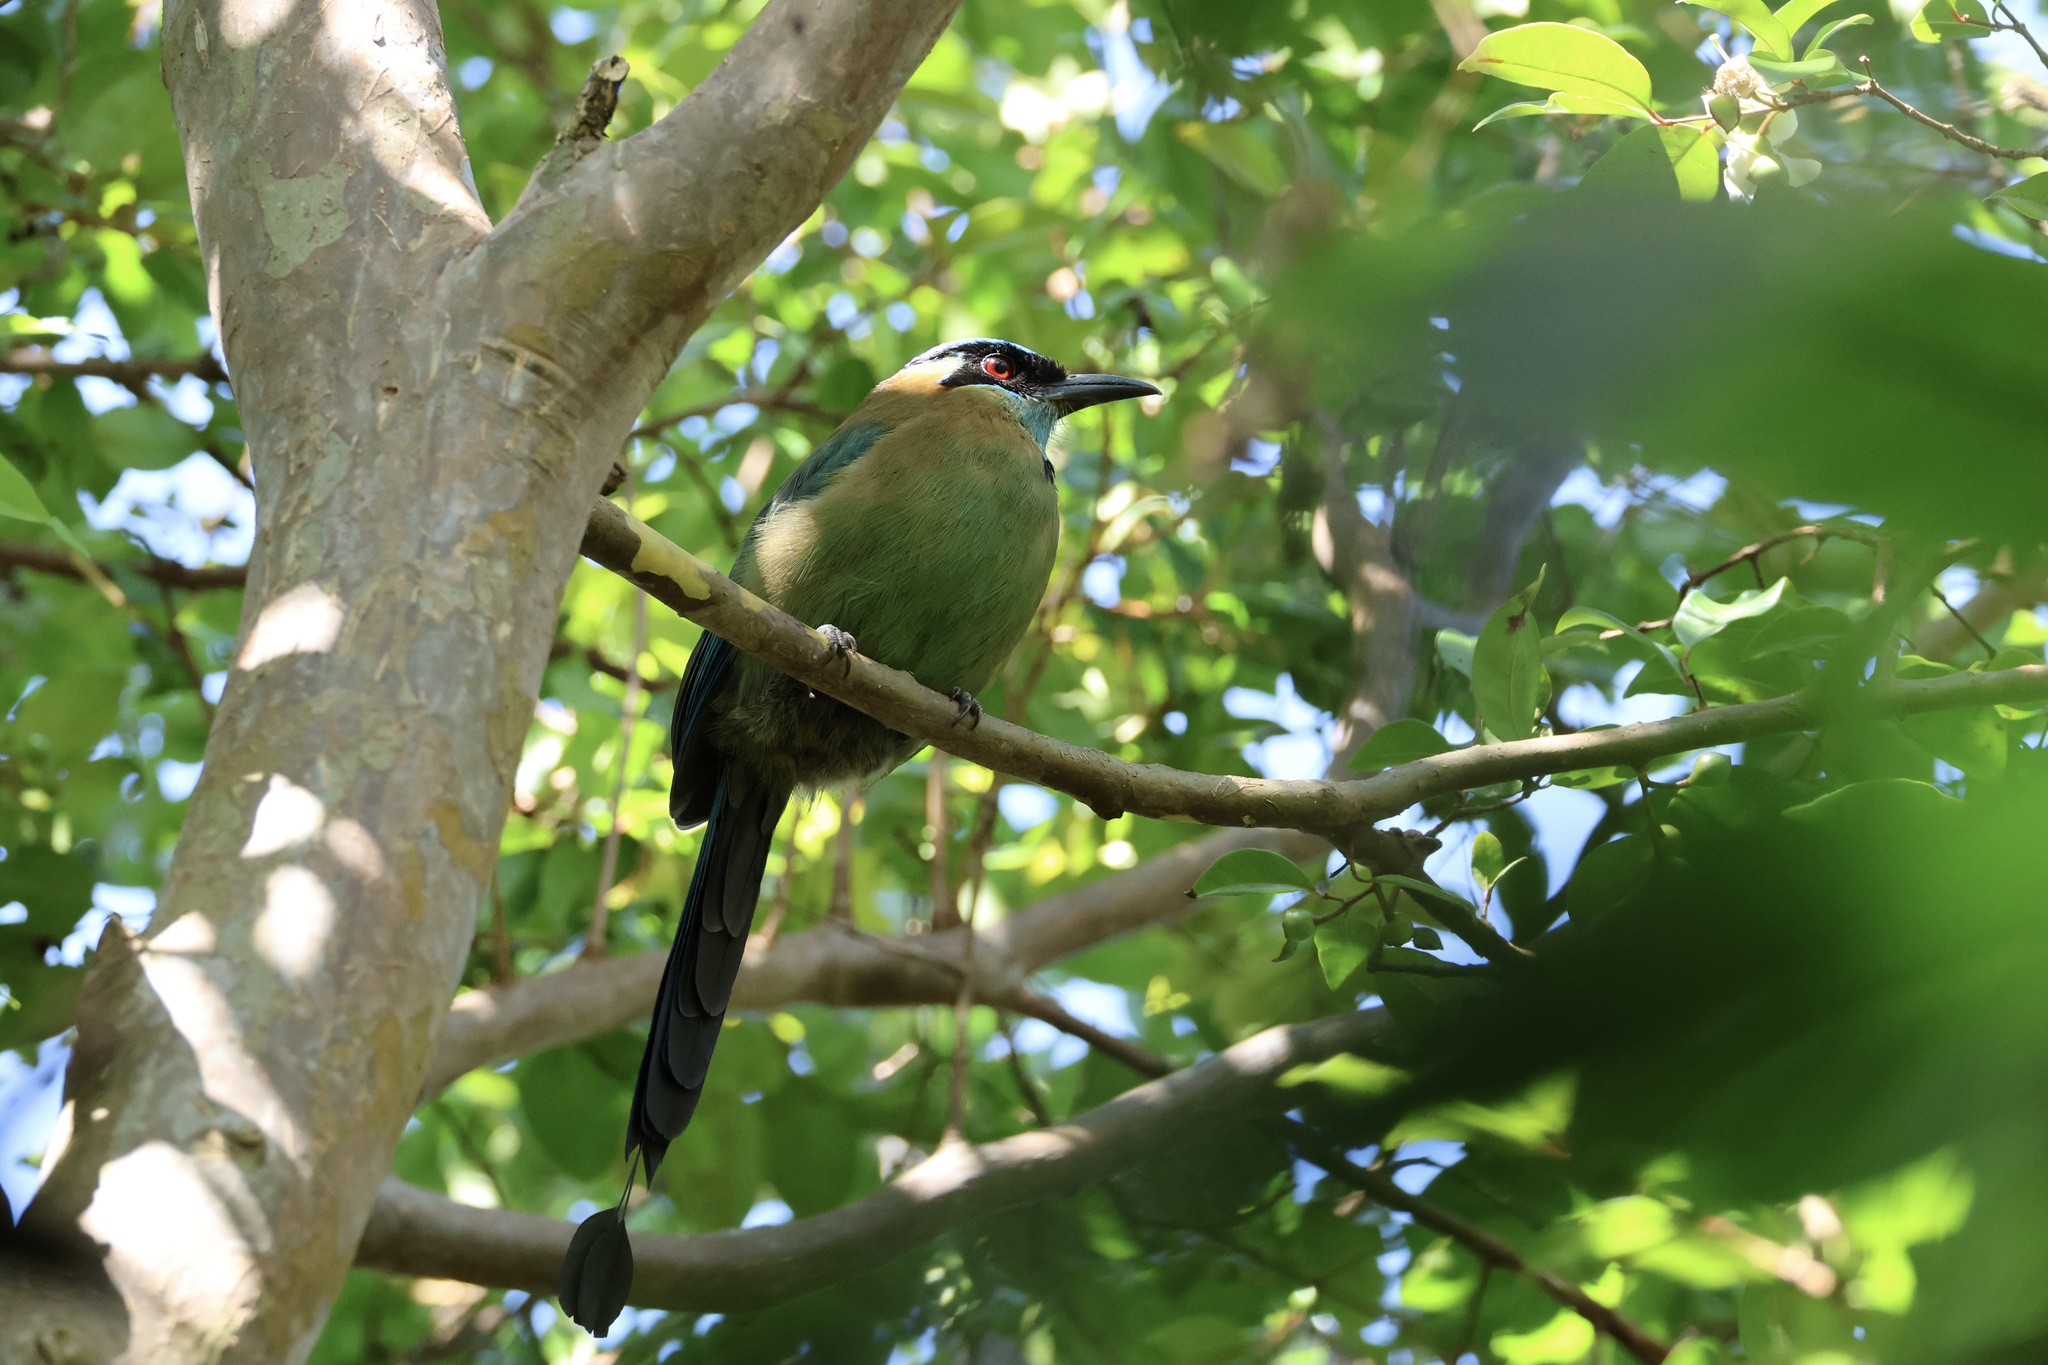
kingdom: Animalia
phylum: Chordata
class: Aves
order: Coraciiformes
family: Momotidae
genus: Momotus
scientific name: Momotus lessonii
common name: Lesson's motmot
